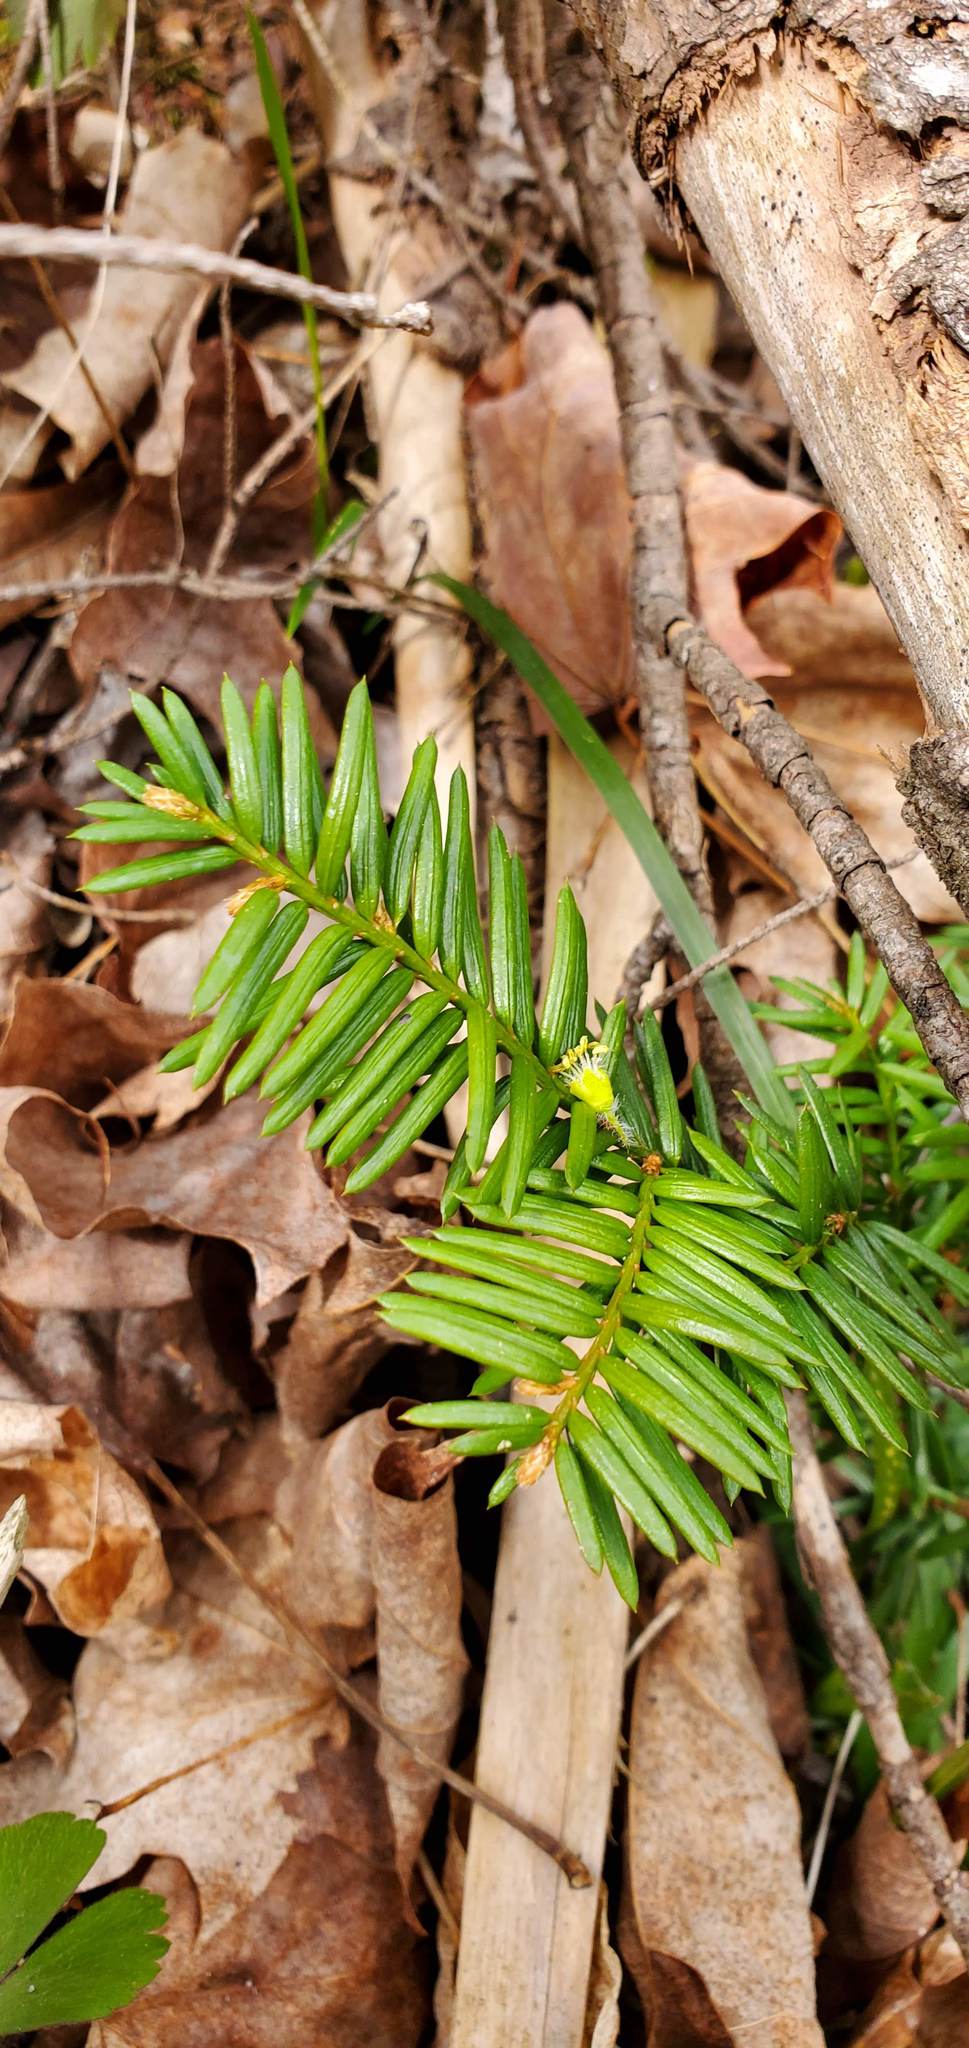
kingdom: Plantae
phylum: Tracheophyta
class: Pinopsida
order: Pinales
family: Taxaceae
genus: Taxus
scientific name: Taxus canadensis
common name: American yew
